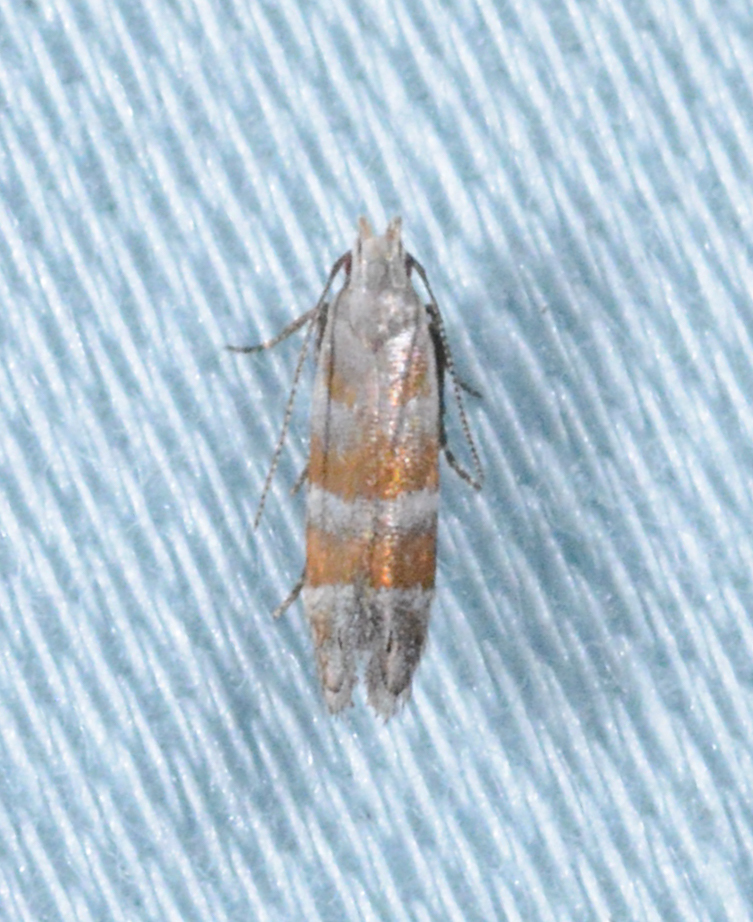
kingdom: Animalia
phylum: Arthropoda
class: Insecta
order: Lepidoptera
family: Gelechiidae
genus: Battaristis
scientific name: Battaristis vittella
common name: Orange stripe-backed moth
